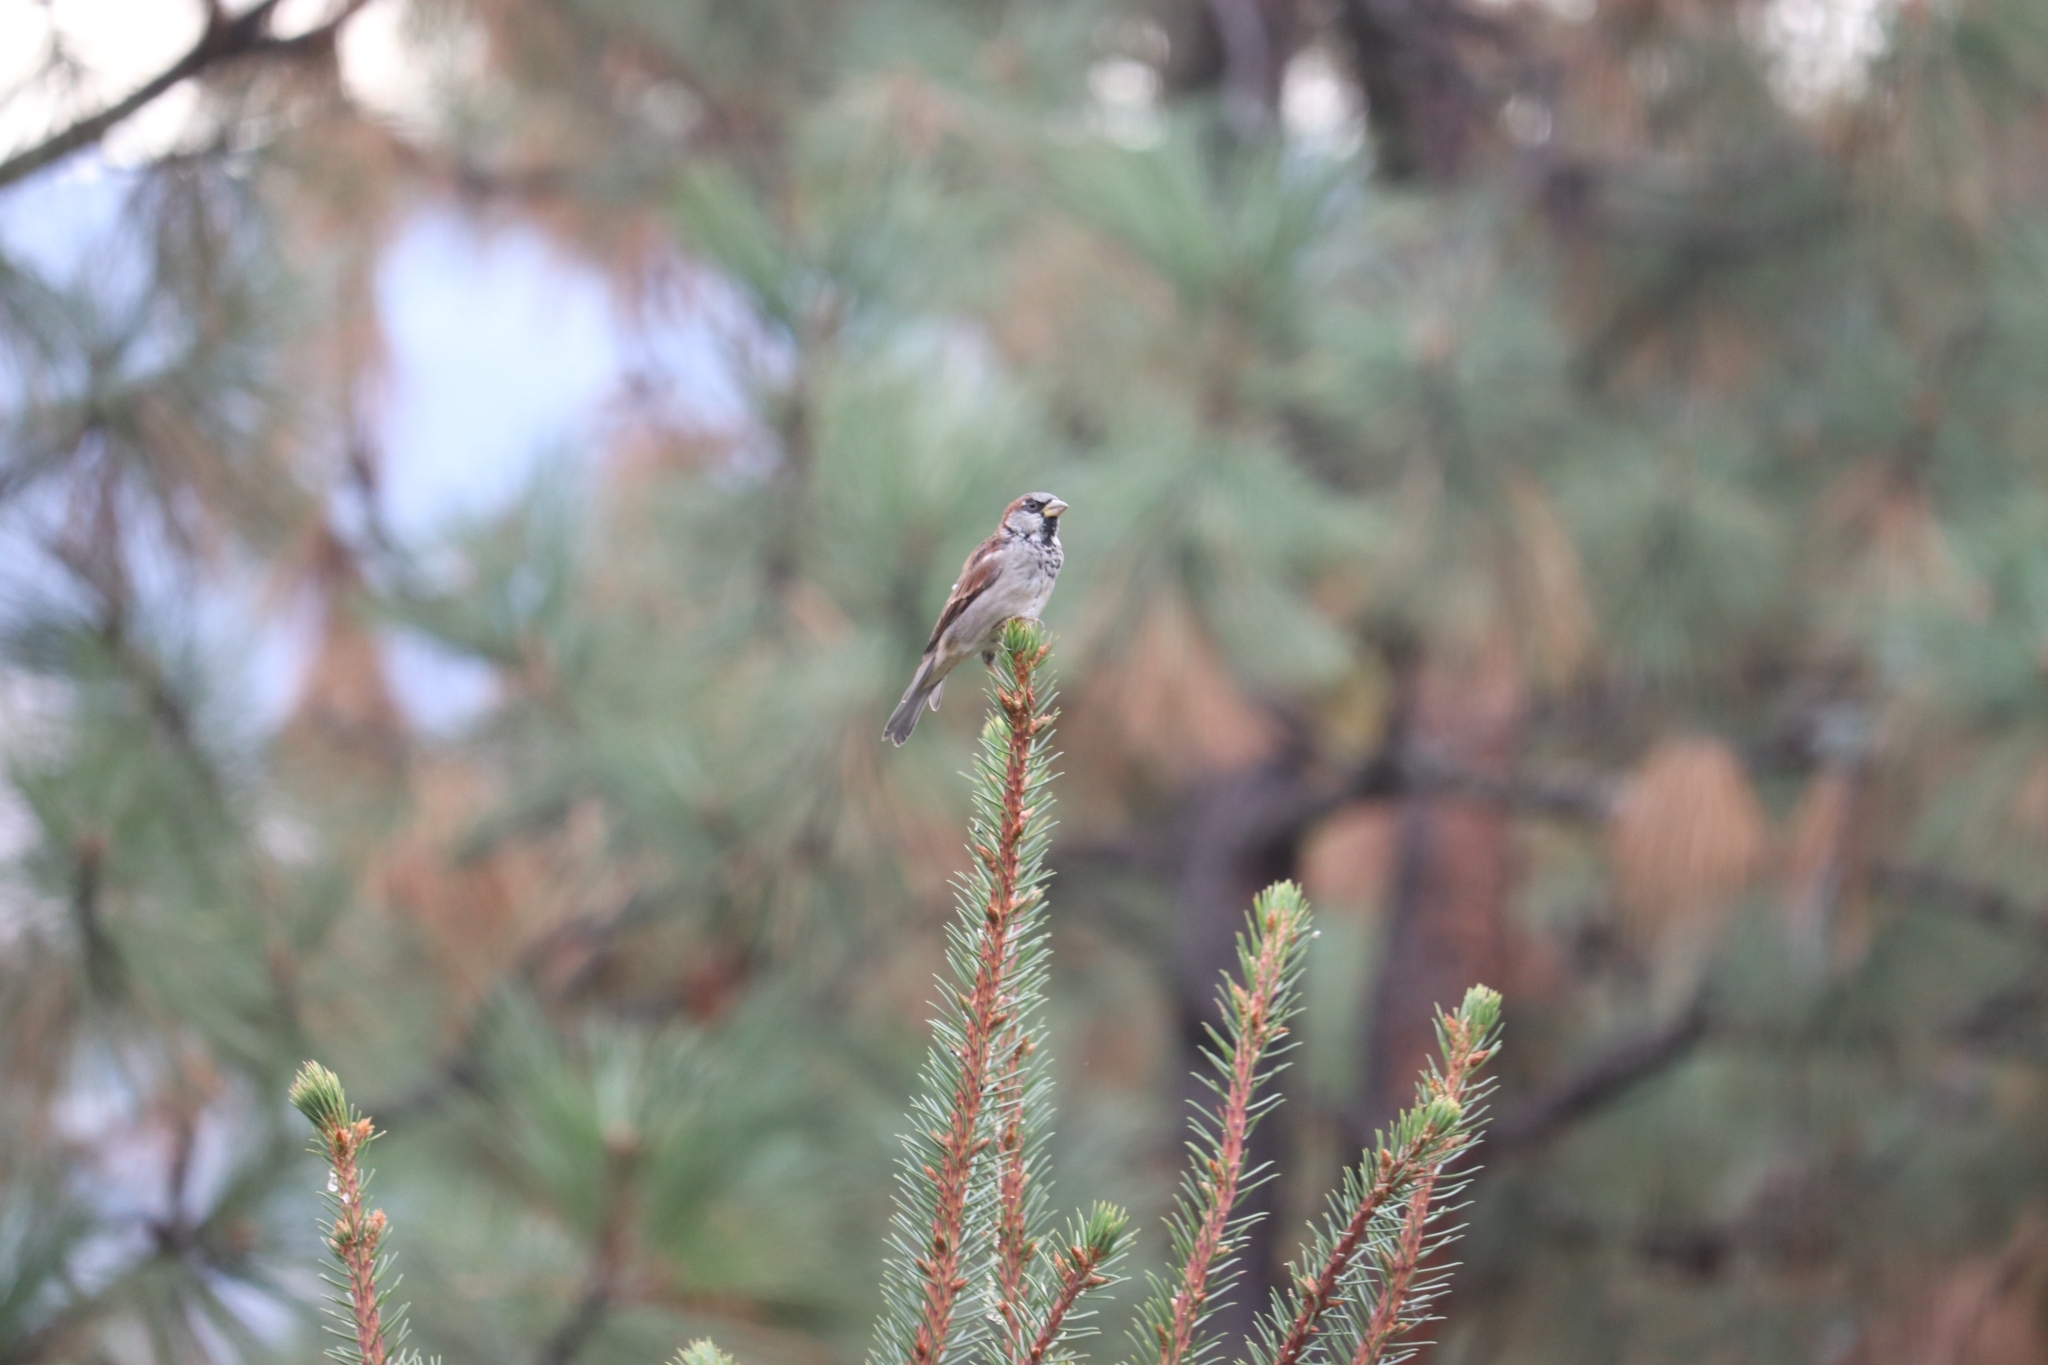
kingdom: Animalia
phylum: Chordata
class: Aves
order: Passeriformes
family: Passeridae
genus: Passer
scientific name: Passer domesticus
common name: House sparrow
